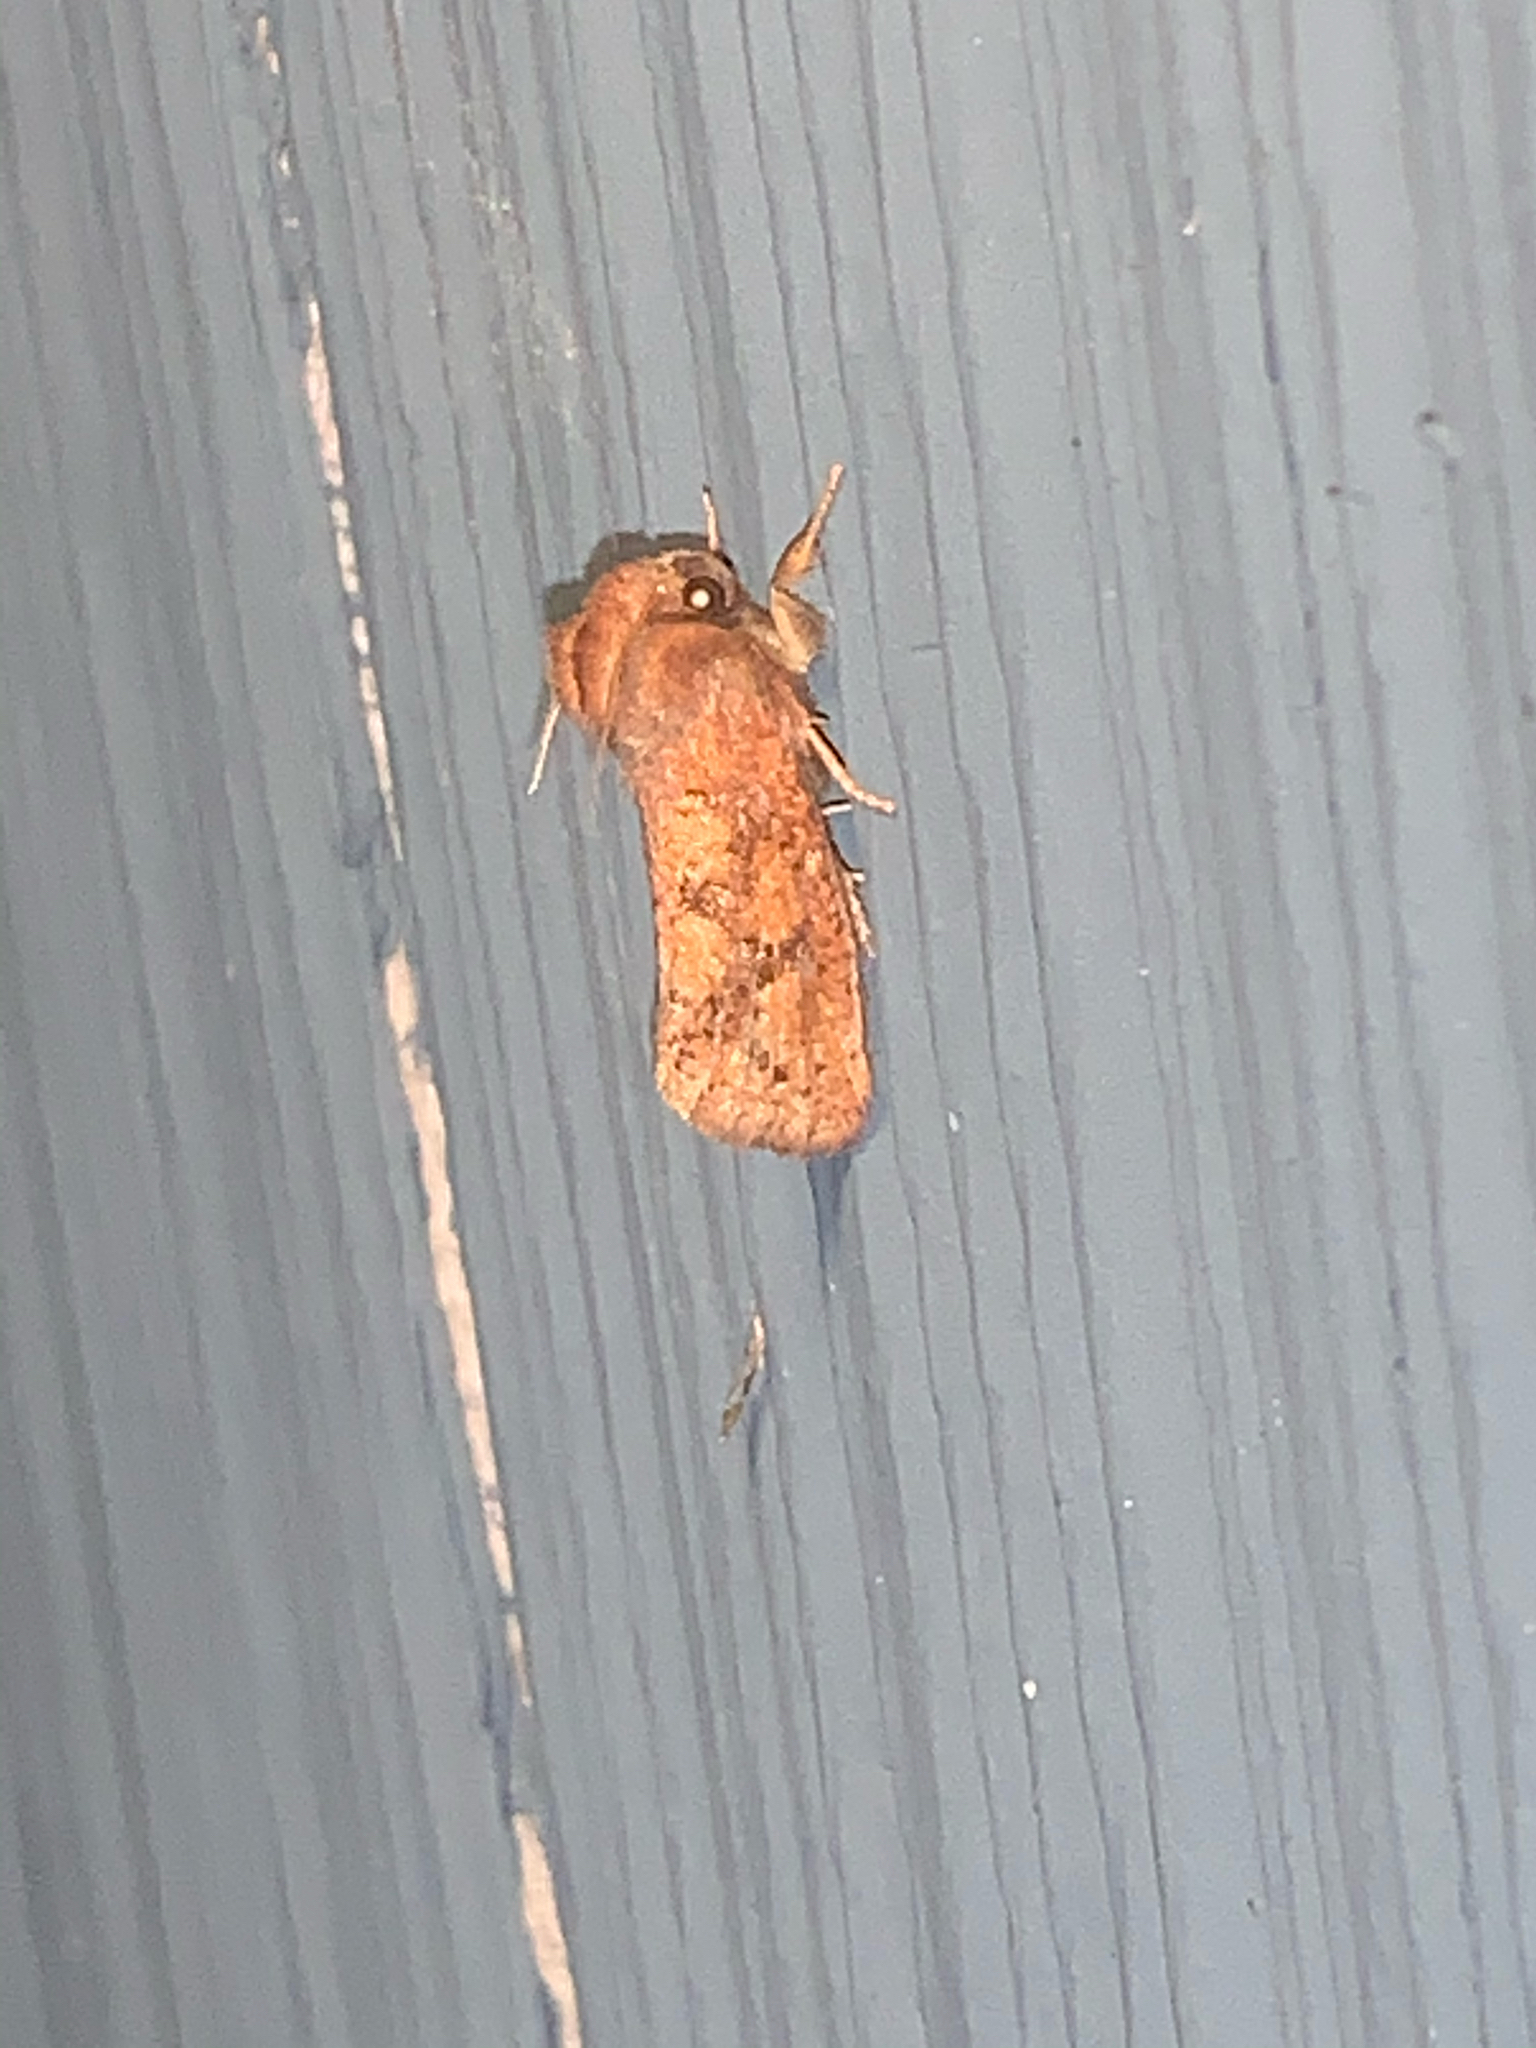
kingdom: Animalia
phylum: Arthropoda
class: Insecta
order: Lepidoptera
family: Tineidae
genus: Acrolophus
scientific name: Acrolophus plumifrontella
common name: Eastern grass tubeworm moth
